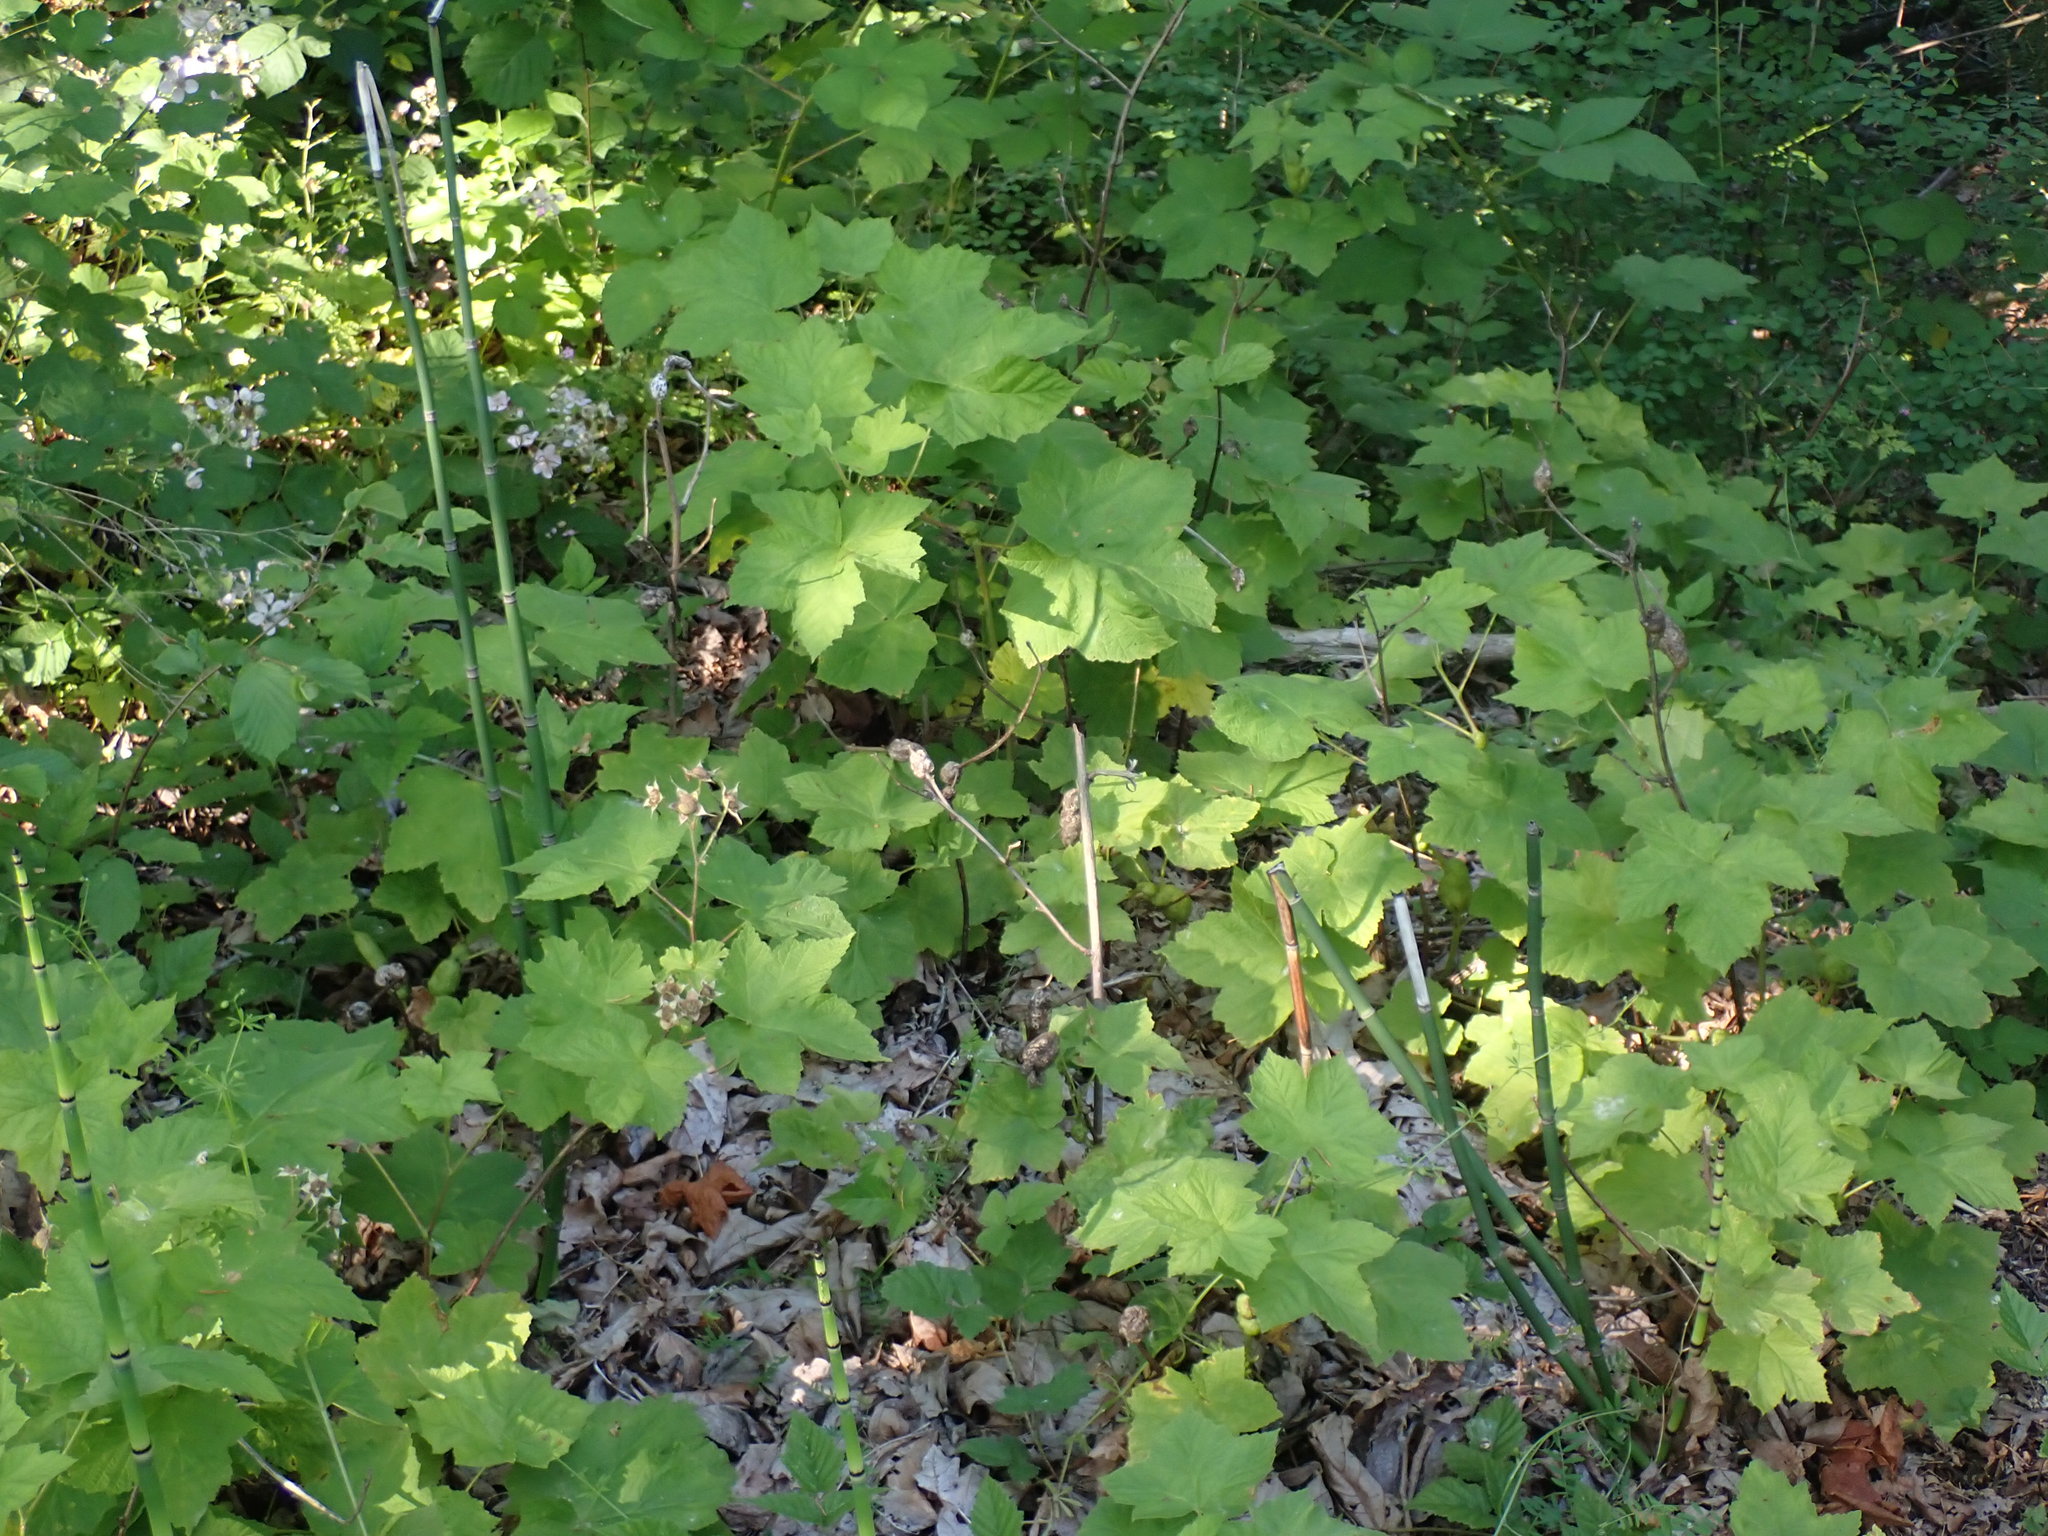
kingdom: Plantae
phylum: Tracheophyta
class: Magnoliopsida
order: Rosales
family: Rosaceae
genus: Rubus
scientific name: Rubus parviflorus
